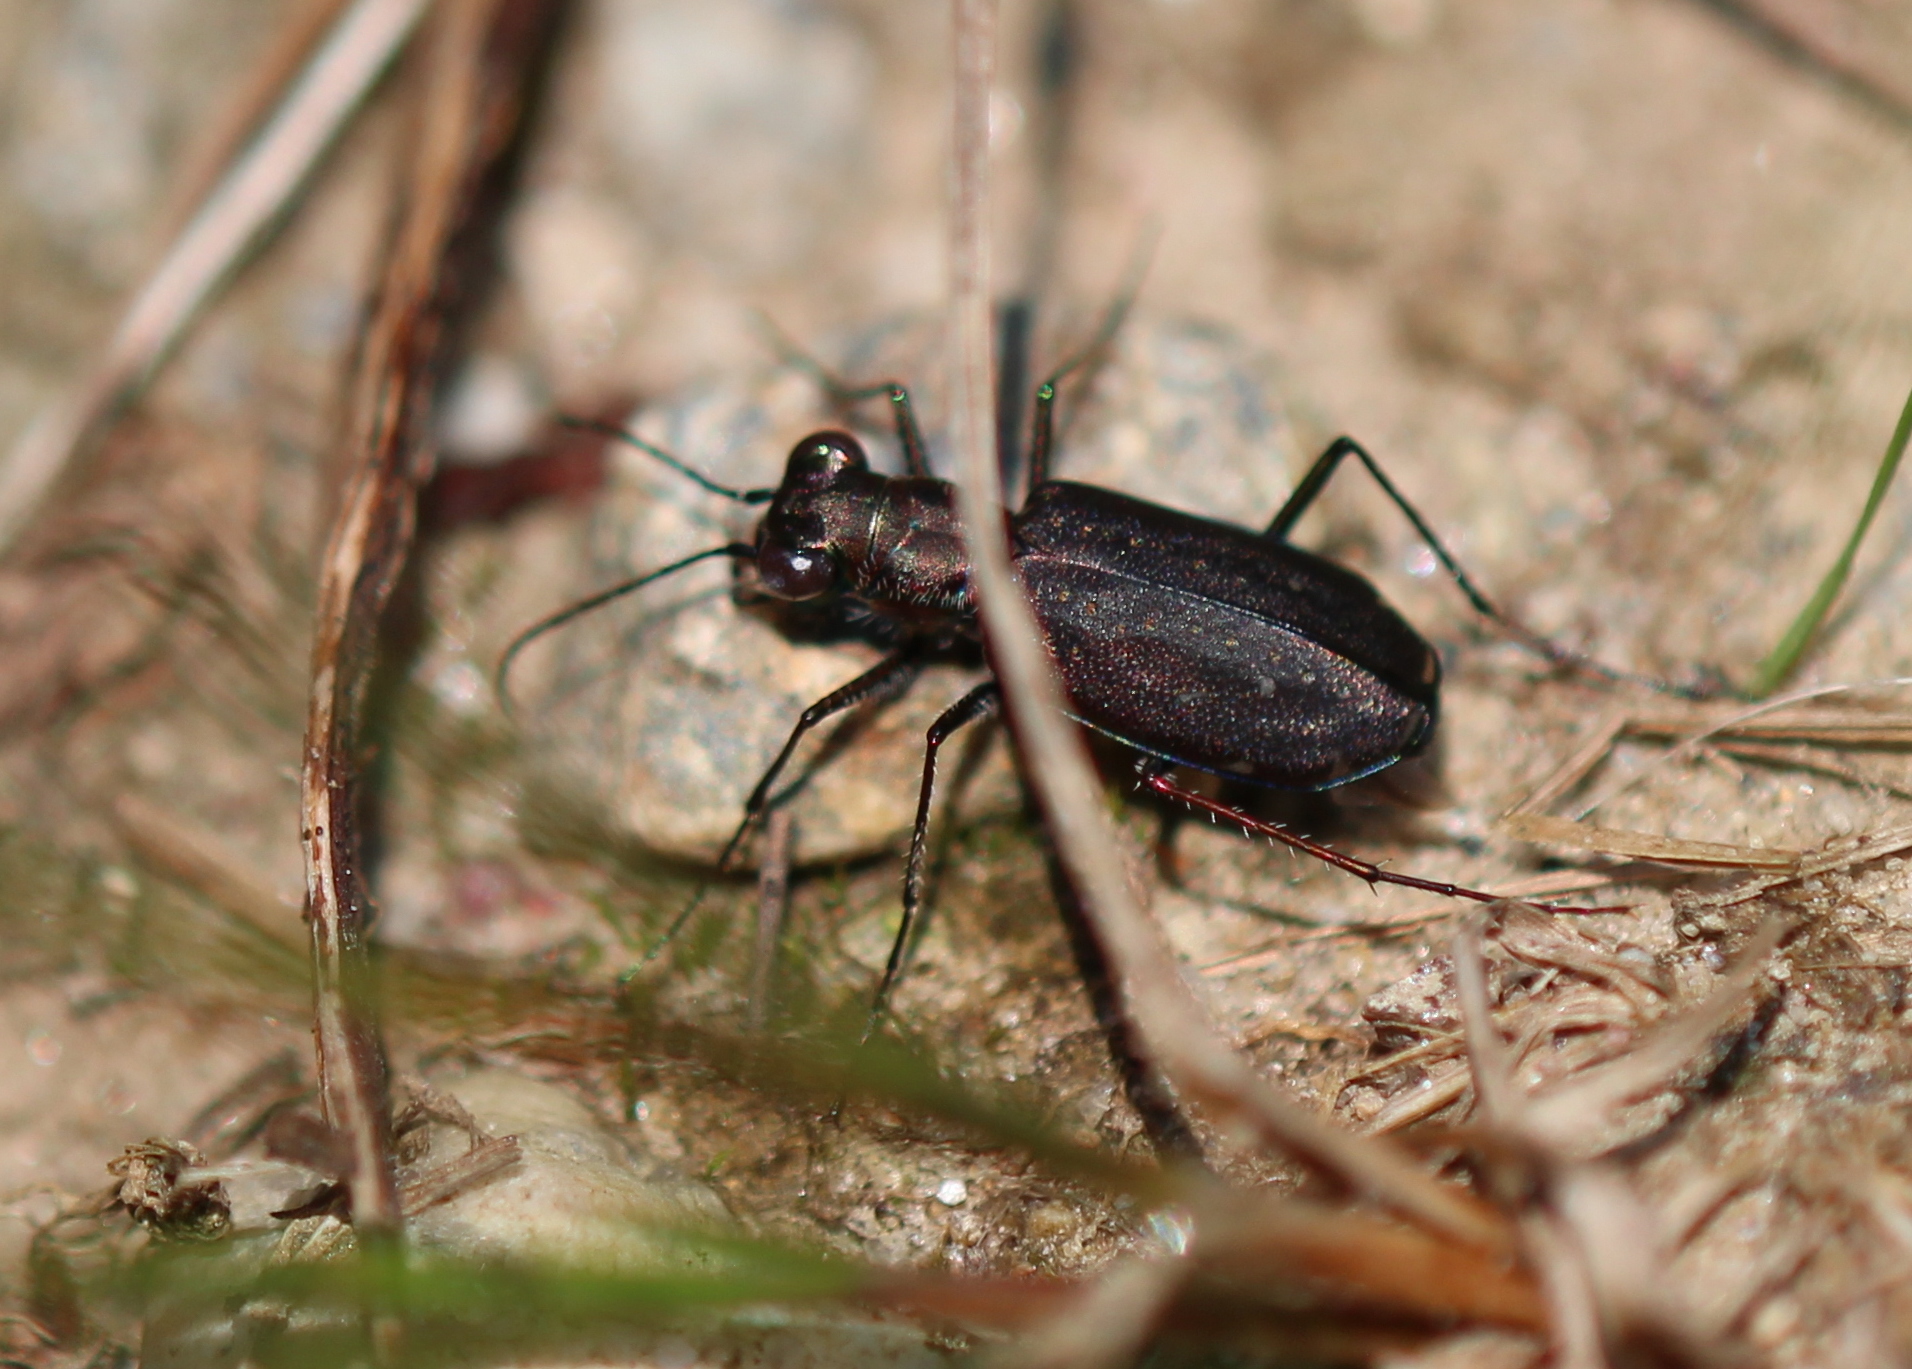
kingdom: Animalia
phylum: Arthropoda
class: Insecta
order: Coleoptera
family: Carabidae
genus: Cicindela
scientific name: Cicindela punctulata
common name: Punctured tiger beetle
